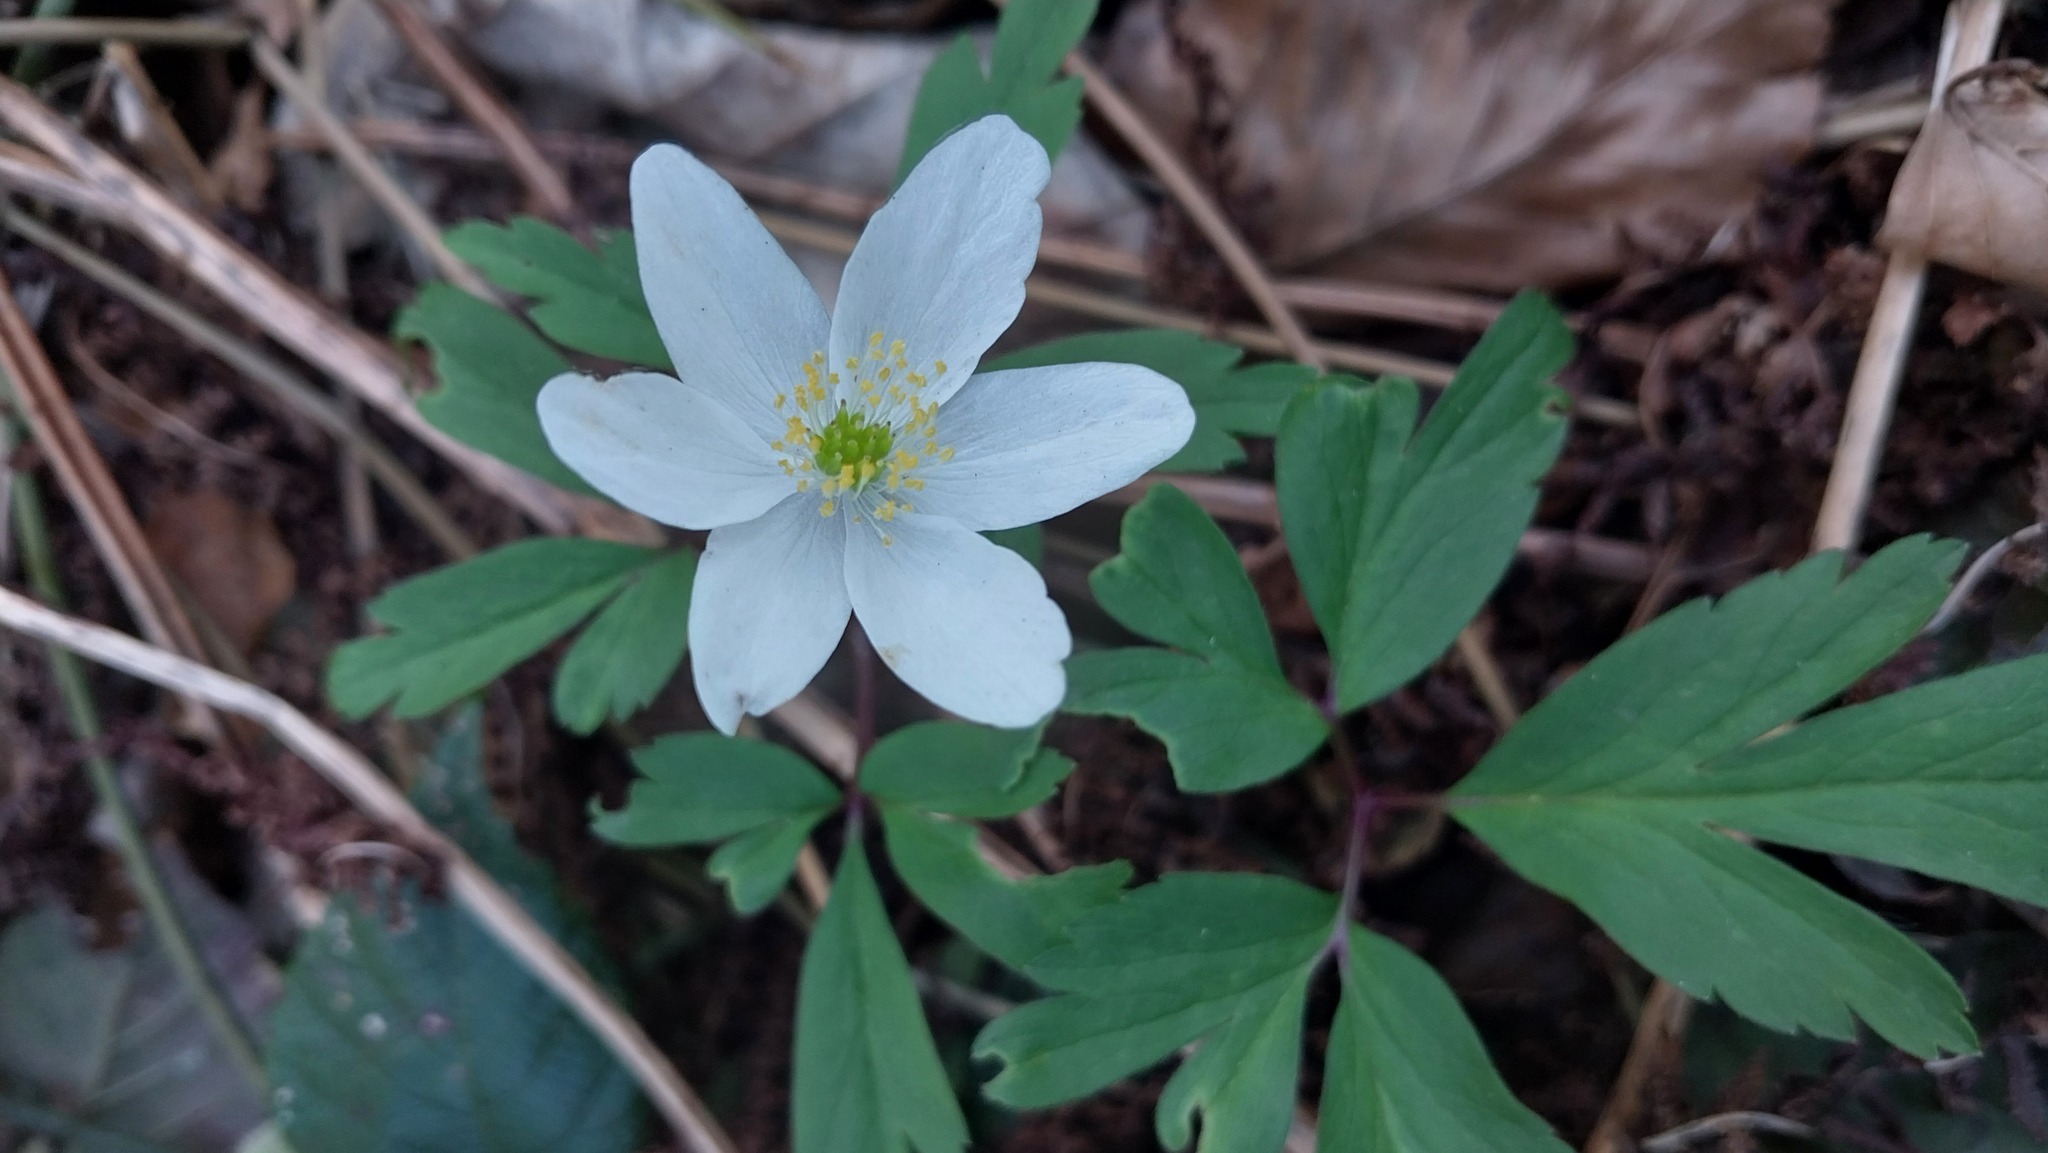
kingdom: Plantae
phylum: Tracheophyta
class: Magnoliopsida
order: Ranunculales
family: Ranunculaceae
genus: Anemone
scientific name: Anemone nemorosa
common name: Wood anemone
